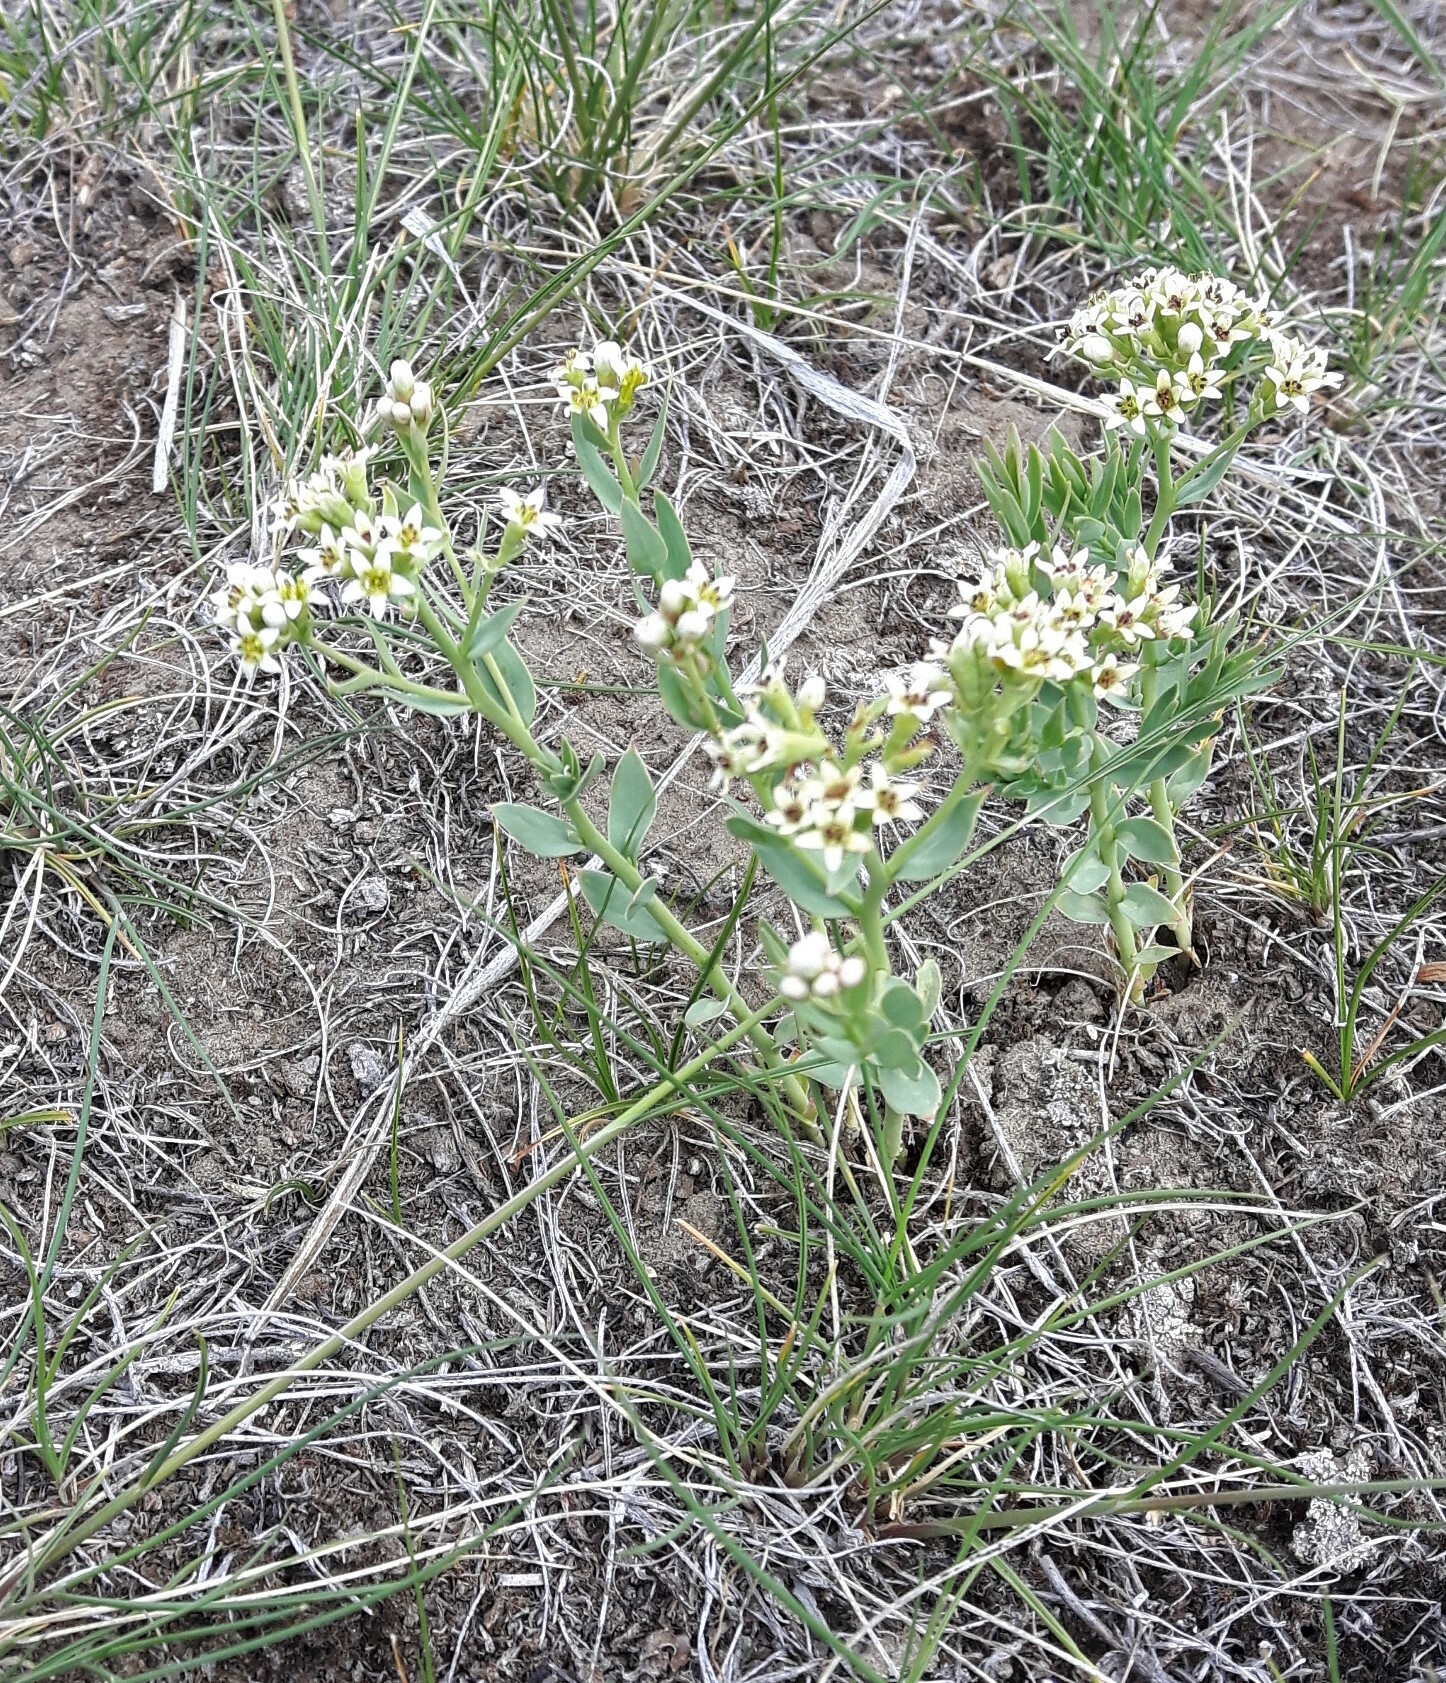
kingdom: Plantae
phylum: Tracheophyta
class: Magnoliopsida
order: Santalales
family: Comandraceae
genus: Comandra
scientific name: Comandra umbellata
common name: Bastard toadflax
